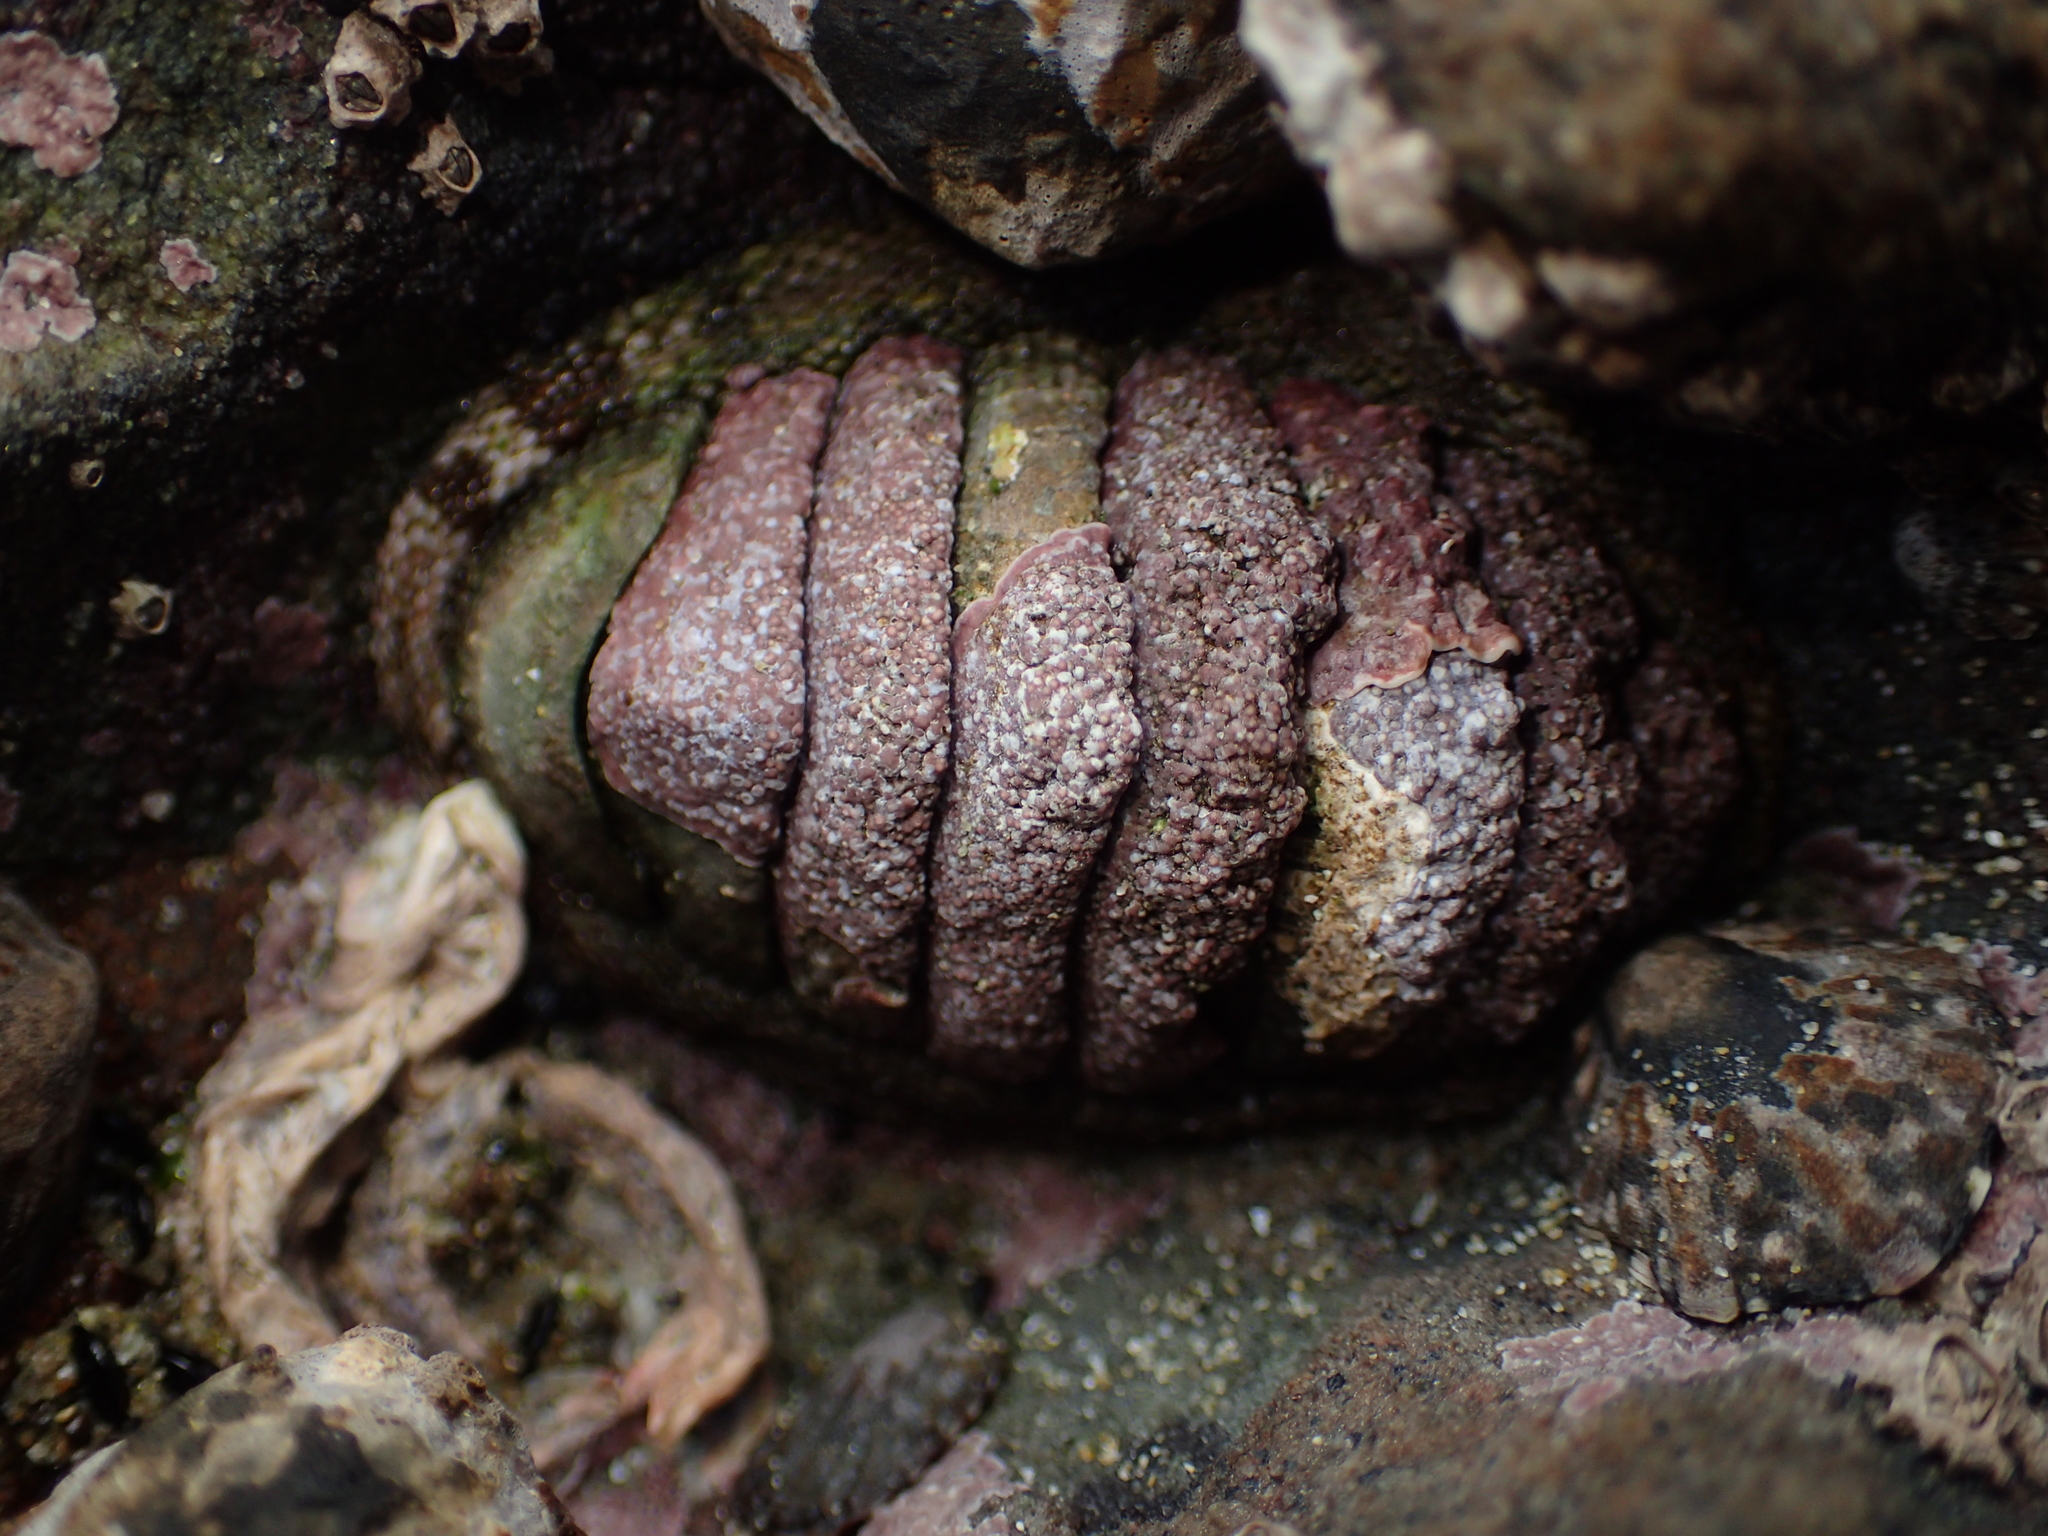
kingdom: Animalia
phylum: Mollusca
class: Polyplacophora
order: Chitonida
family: Chitonidae
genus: Sypharochiton
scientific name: Sypharochiton pelliserpentis
